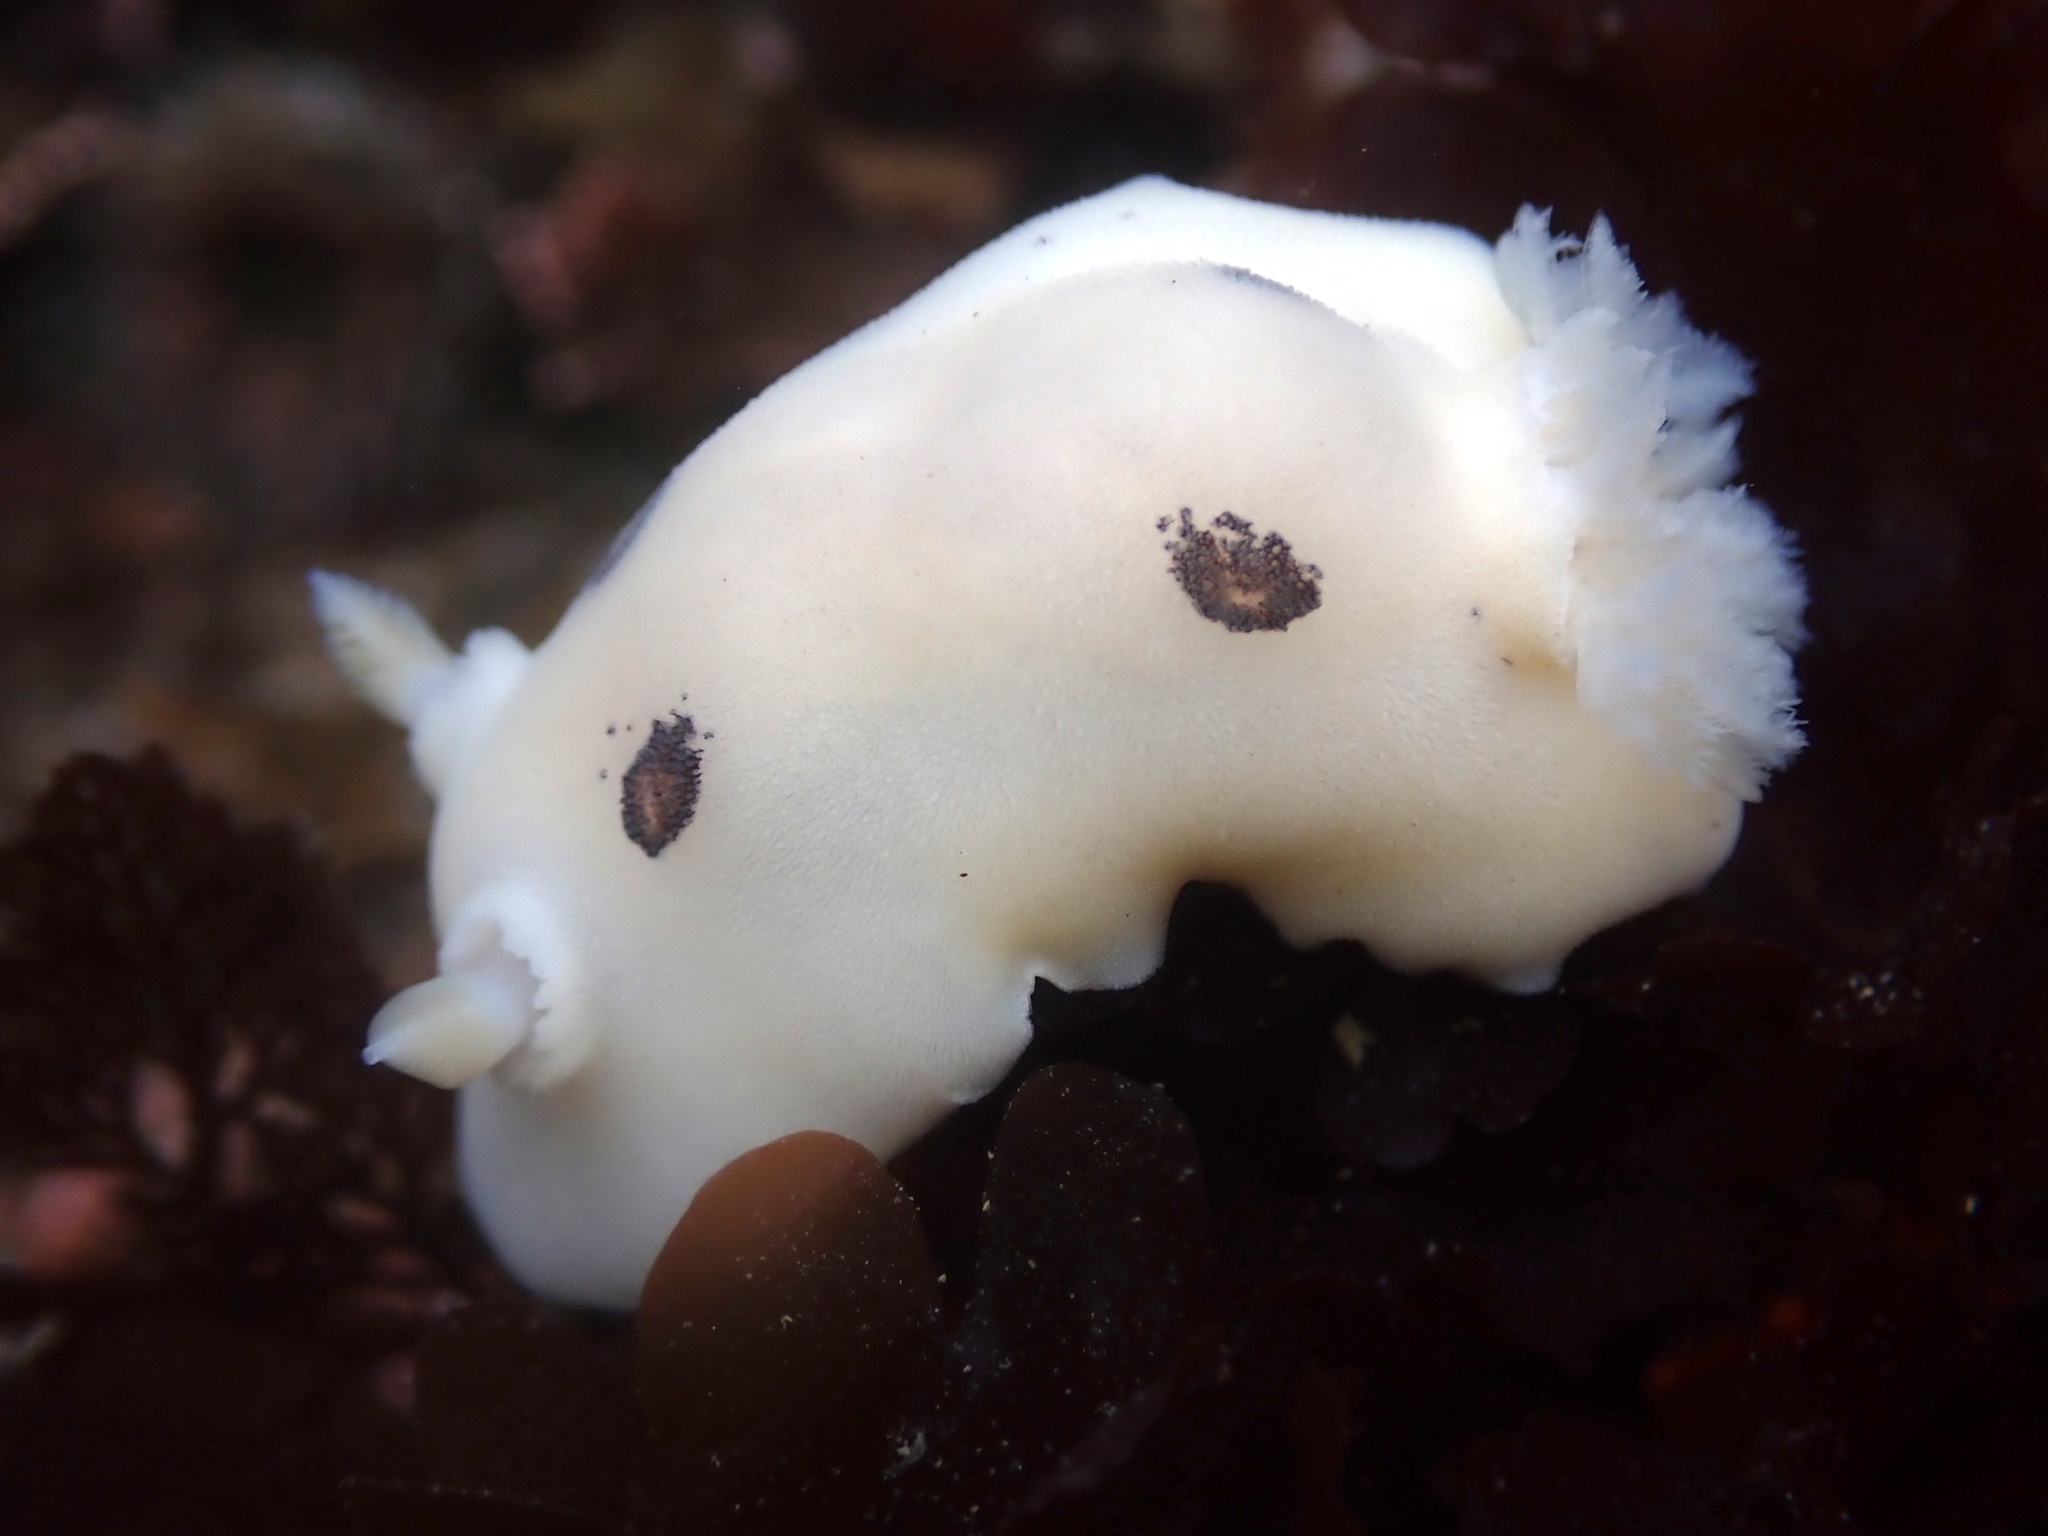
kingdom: Animalia
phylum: Mollusca
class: Gastropoda
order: Nudibranchia
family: Discodorididae
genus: Diaulula
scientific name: Diaulula sandiegensis
